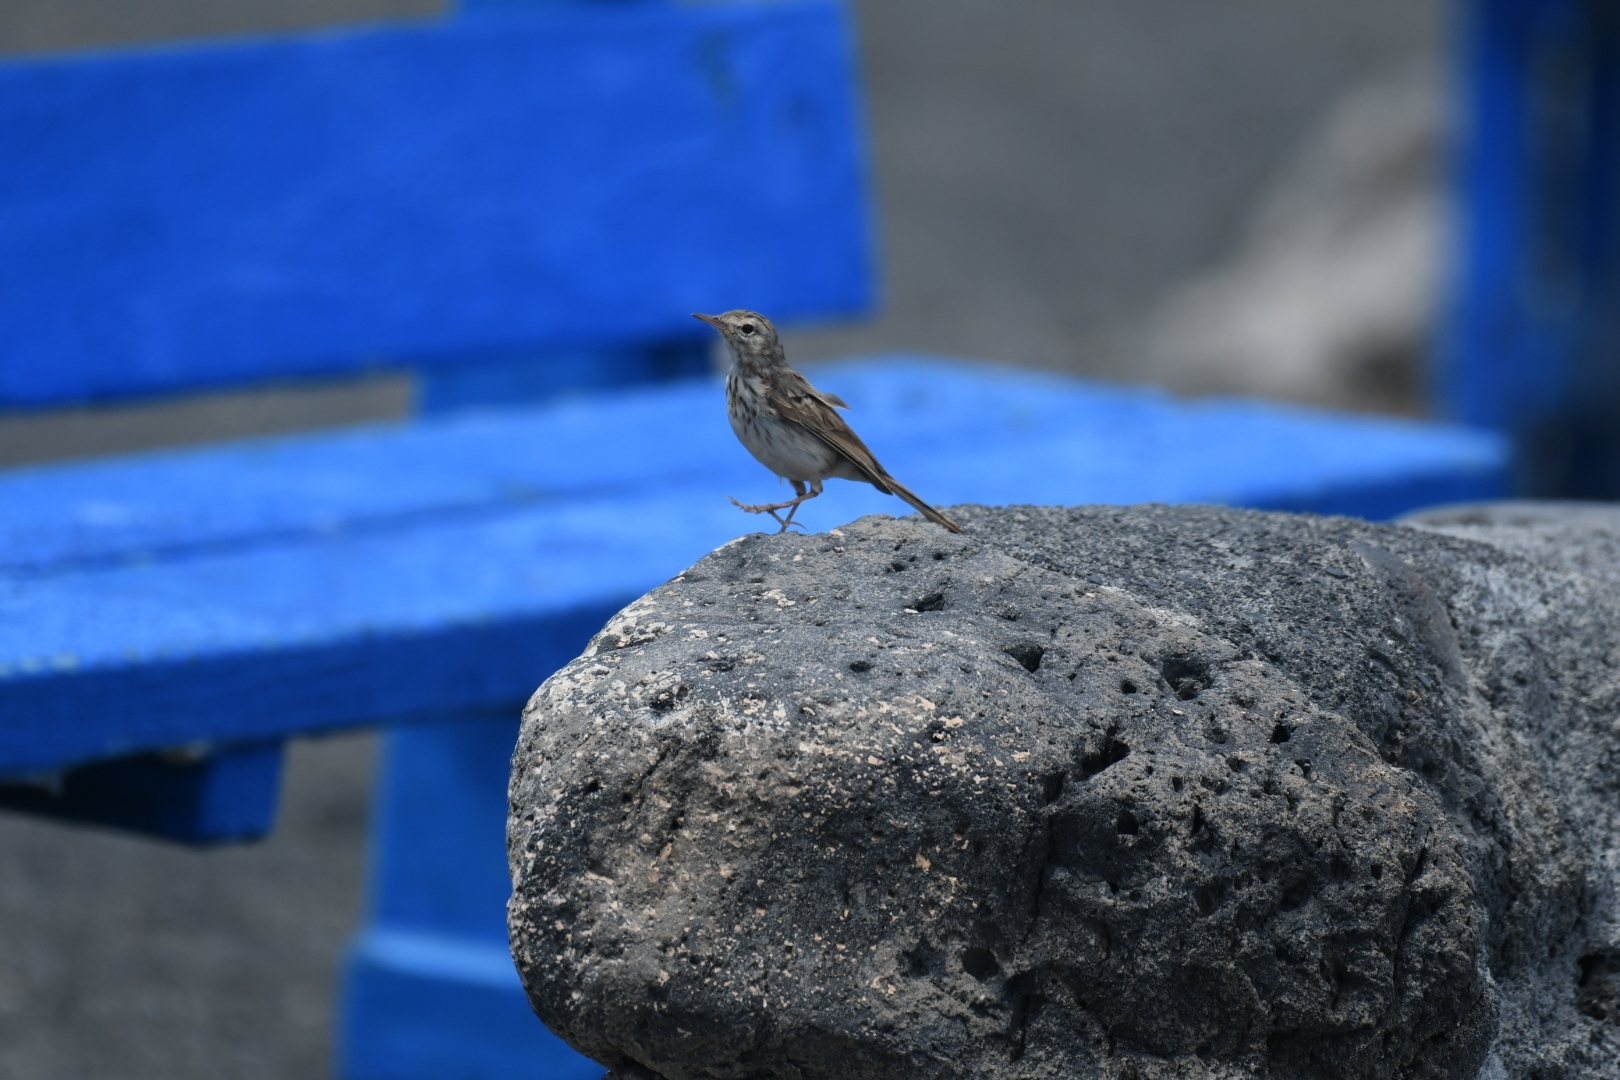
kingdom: Animalia
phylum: Chordata
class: Aves
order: Passeriformes
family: Motacillidae
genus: Anthus
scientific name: Anthus berthelotii
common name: Berthelot's pipit
